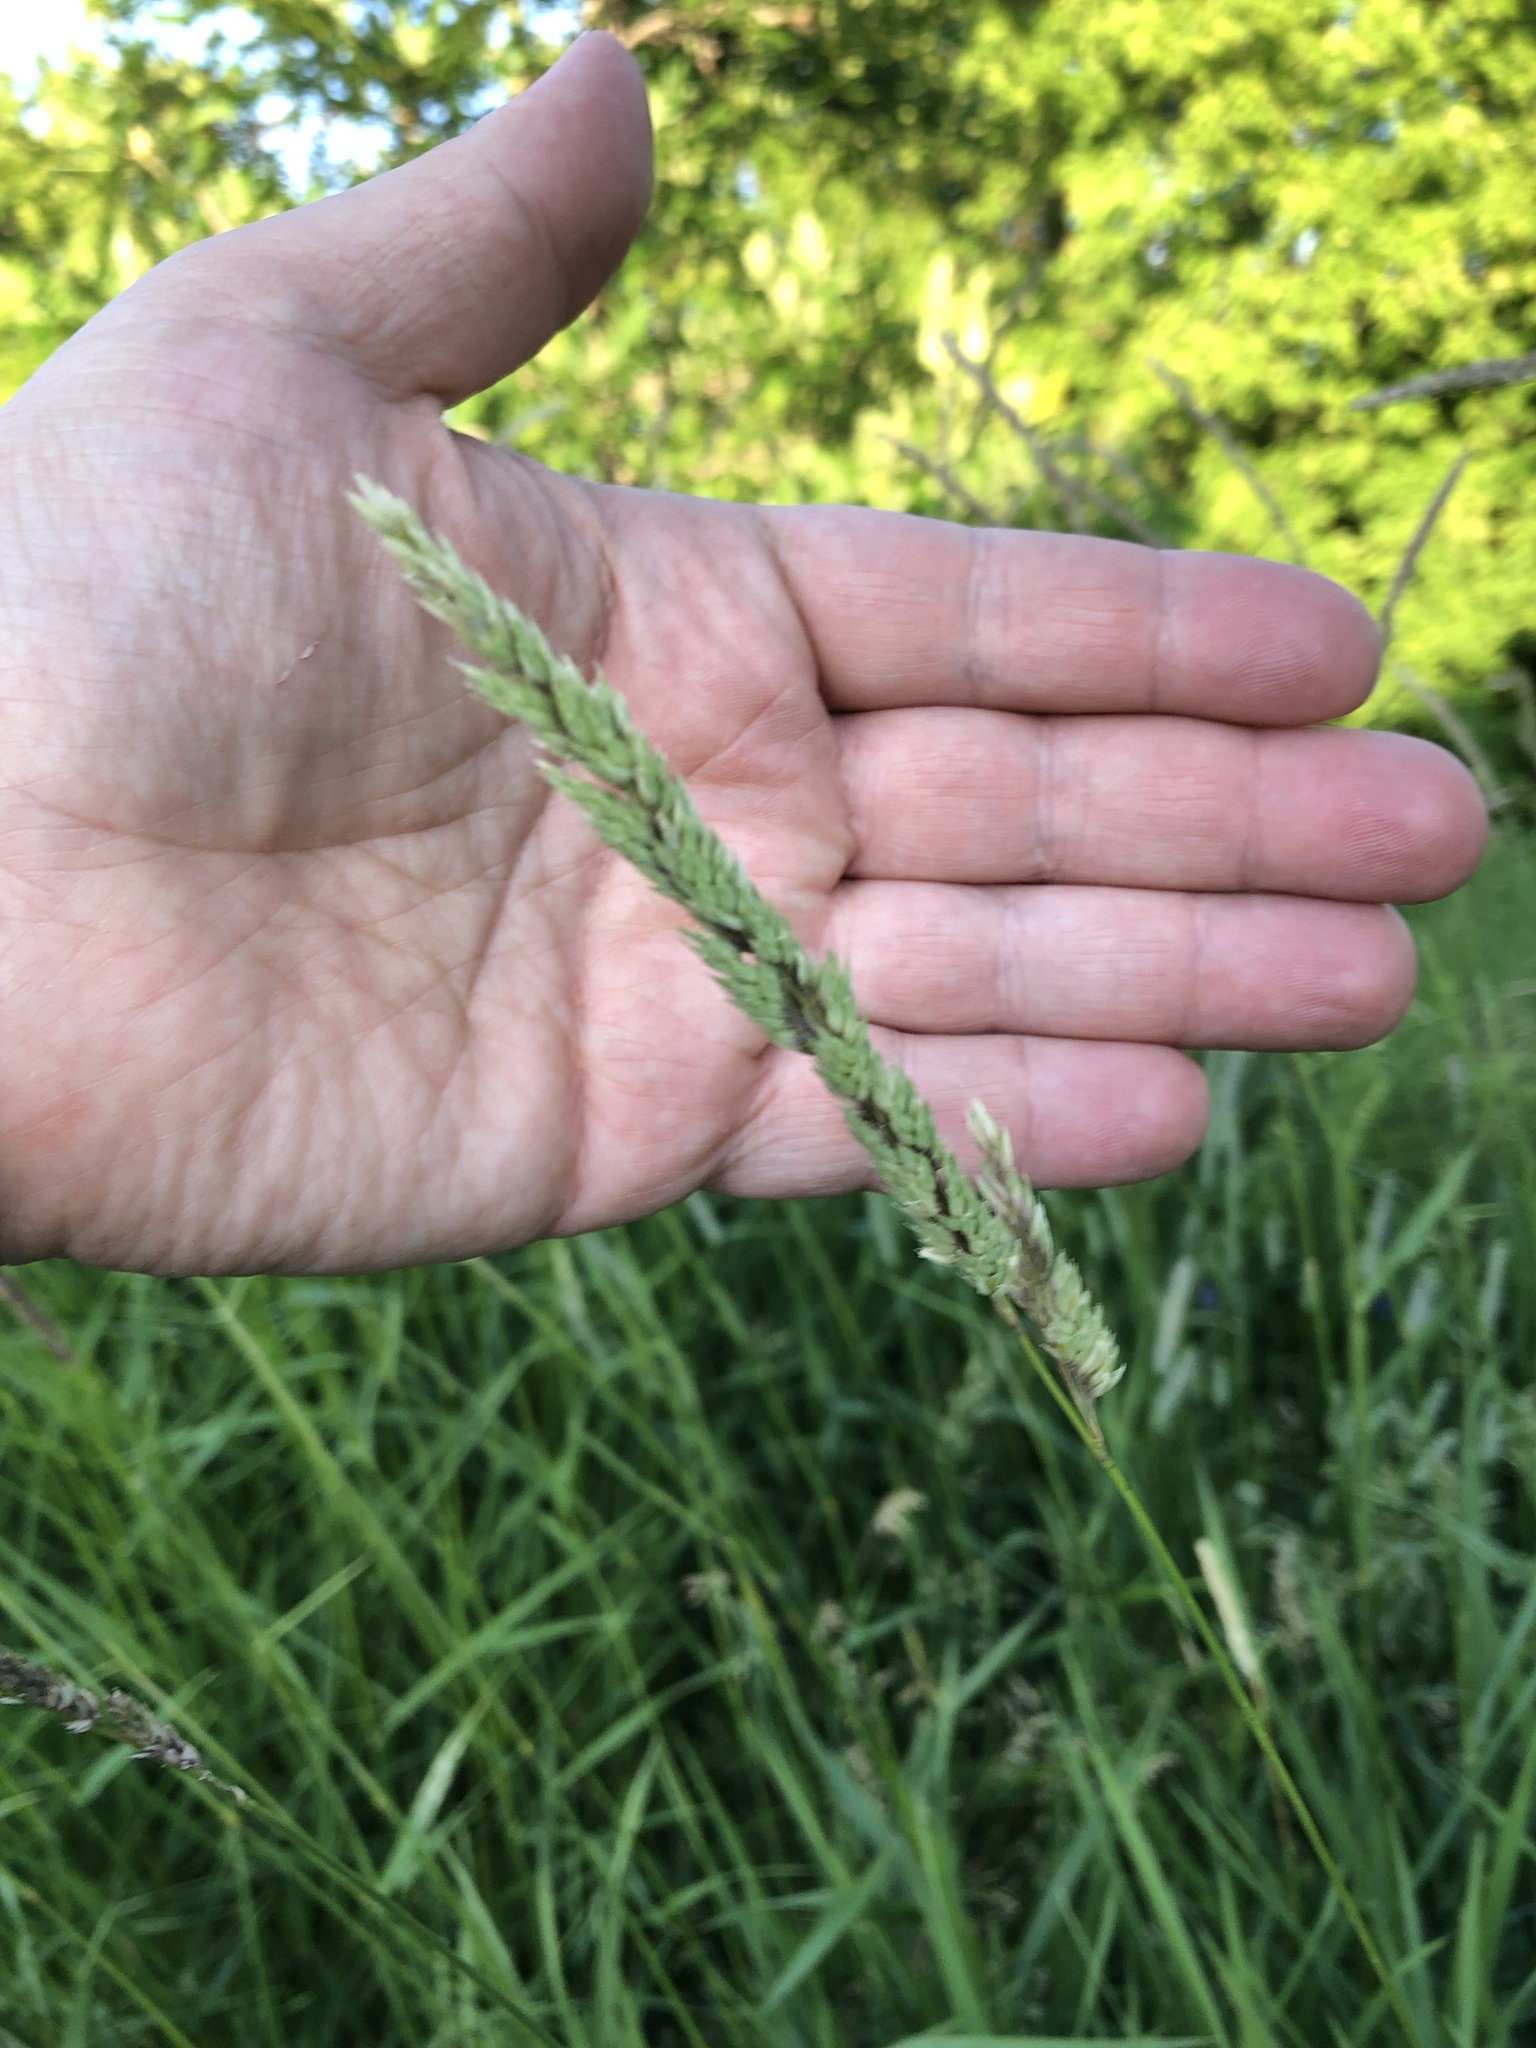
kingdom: Plantae
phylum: Tracheophyta
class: Liliopsida
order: Poales
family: Poaceae
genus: Phalaris
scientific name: Phalaris arundinacea
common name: Reed canary-grass
